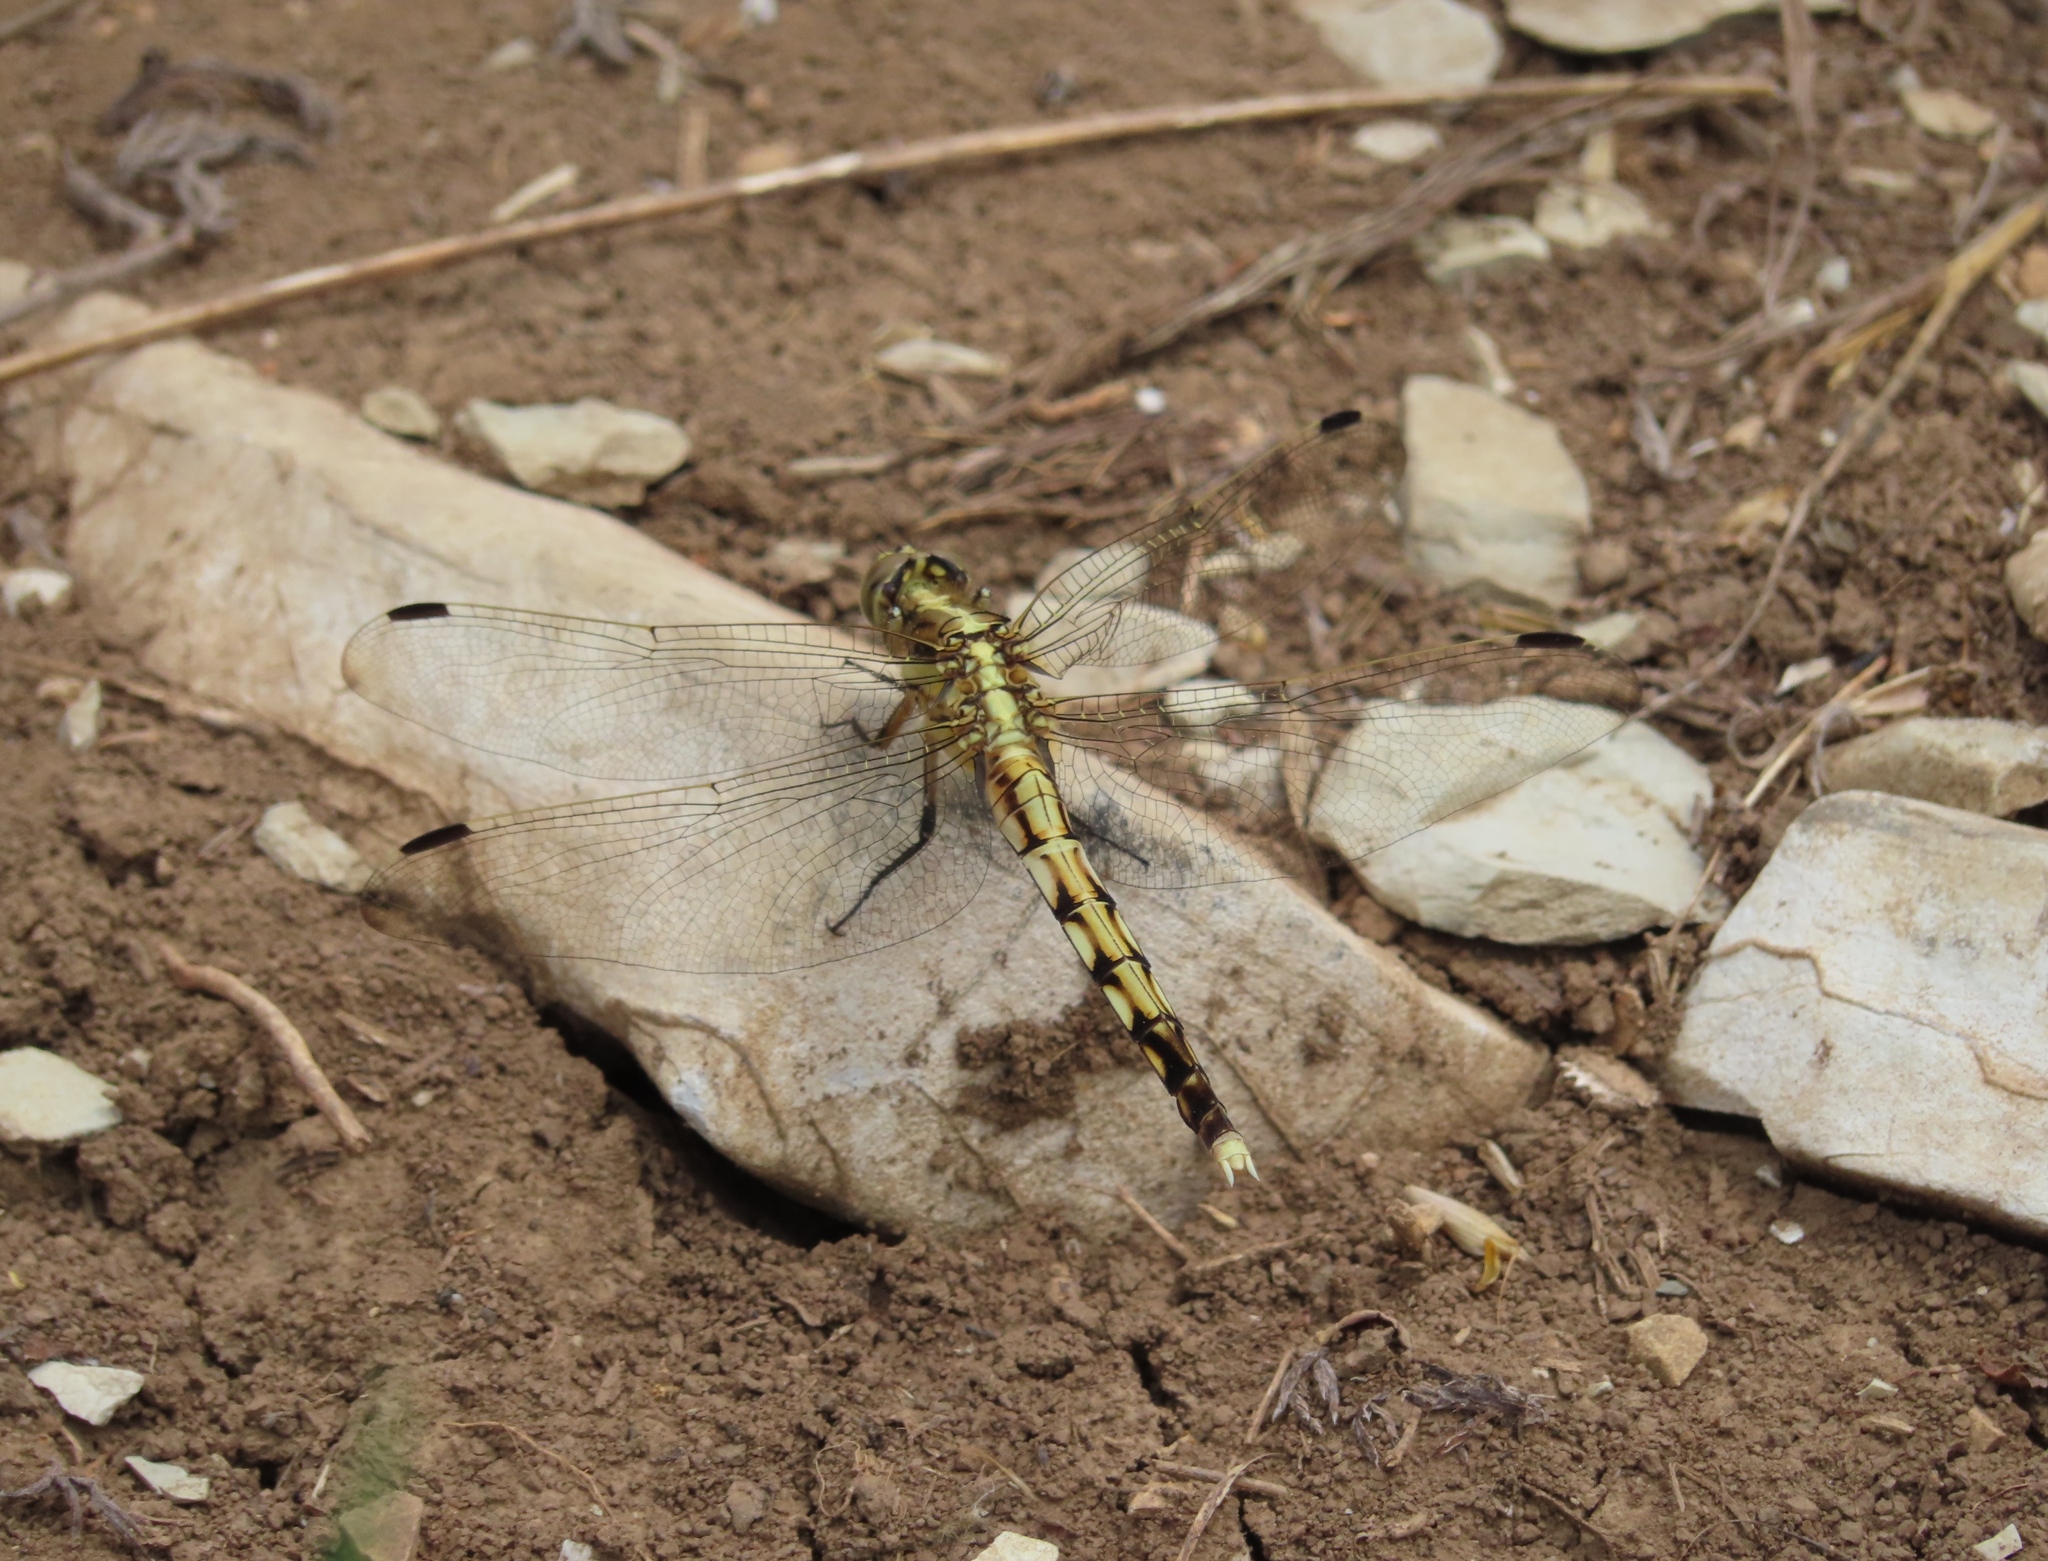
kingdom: Animalia
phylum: Arthropoda
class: Insecta
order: Odonata
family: Libellulidae
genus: Orthetrum
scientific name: Orthetrum albistylum
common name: White-tailed skimmer
